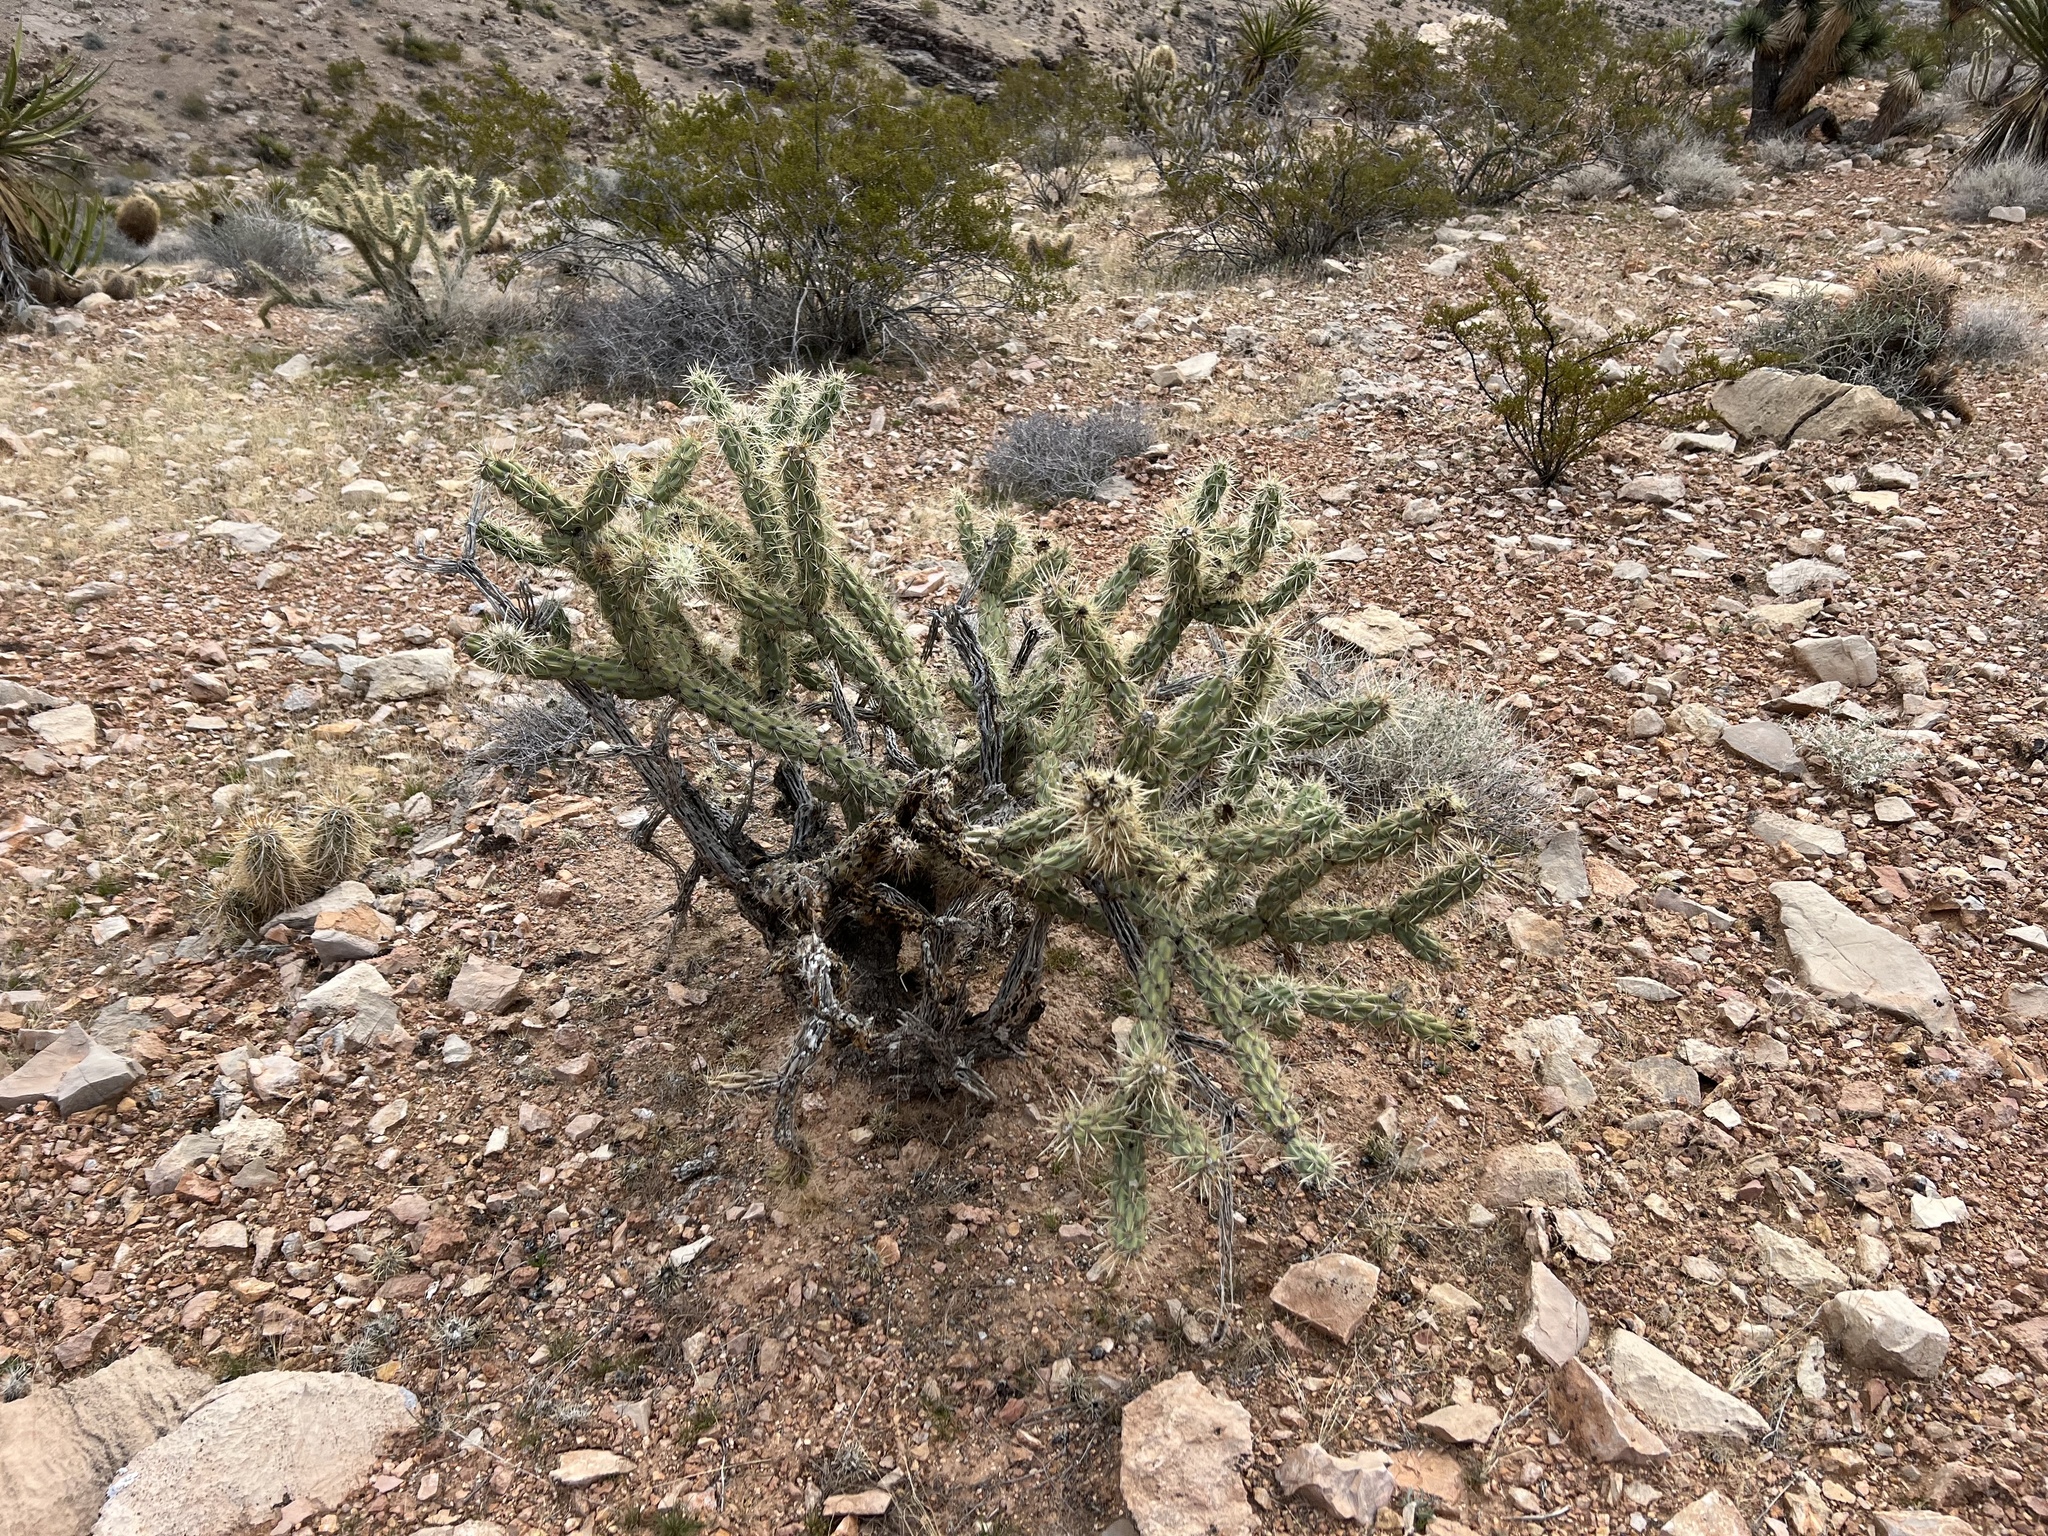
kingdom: Plantae
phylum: Tracheophyta
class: Magnoliopsida
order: Caryophyllales
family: Cactaceae
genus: Cylindropuntia
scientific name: Cylindropuntia acanthocarpa
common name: Buckhorn cholla
